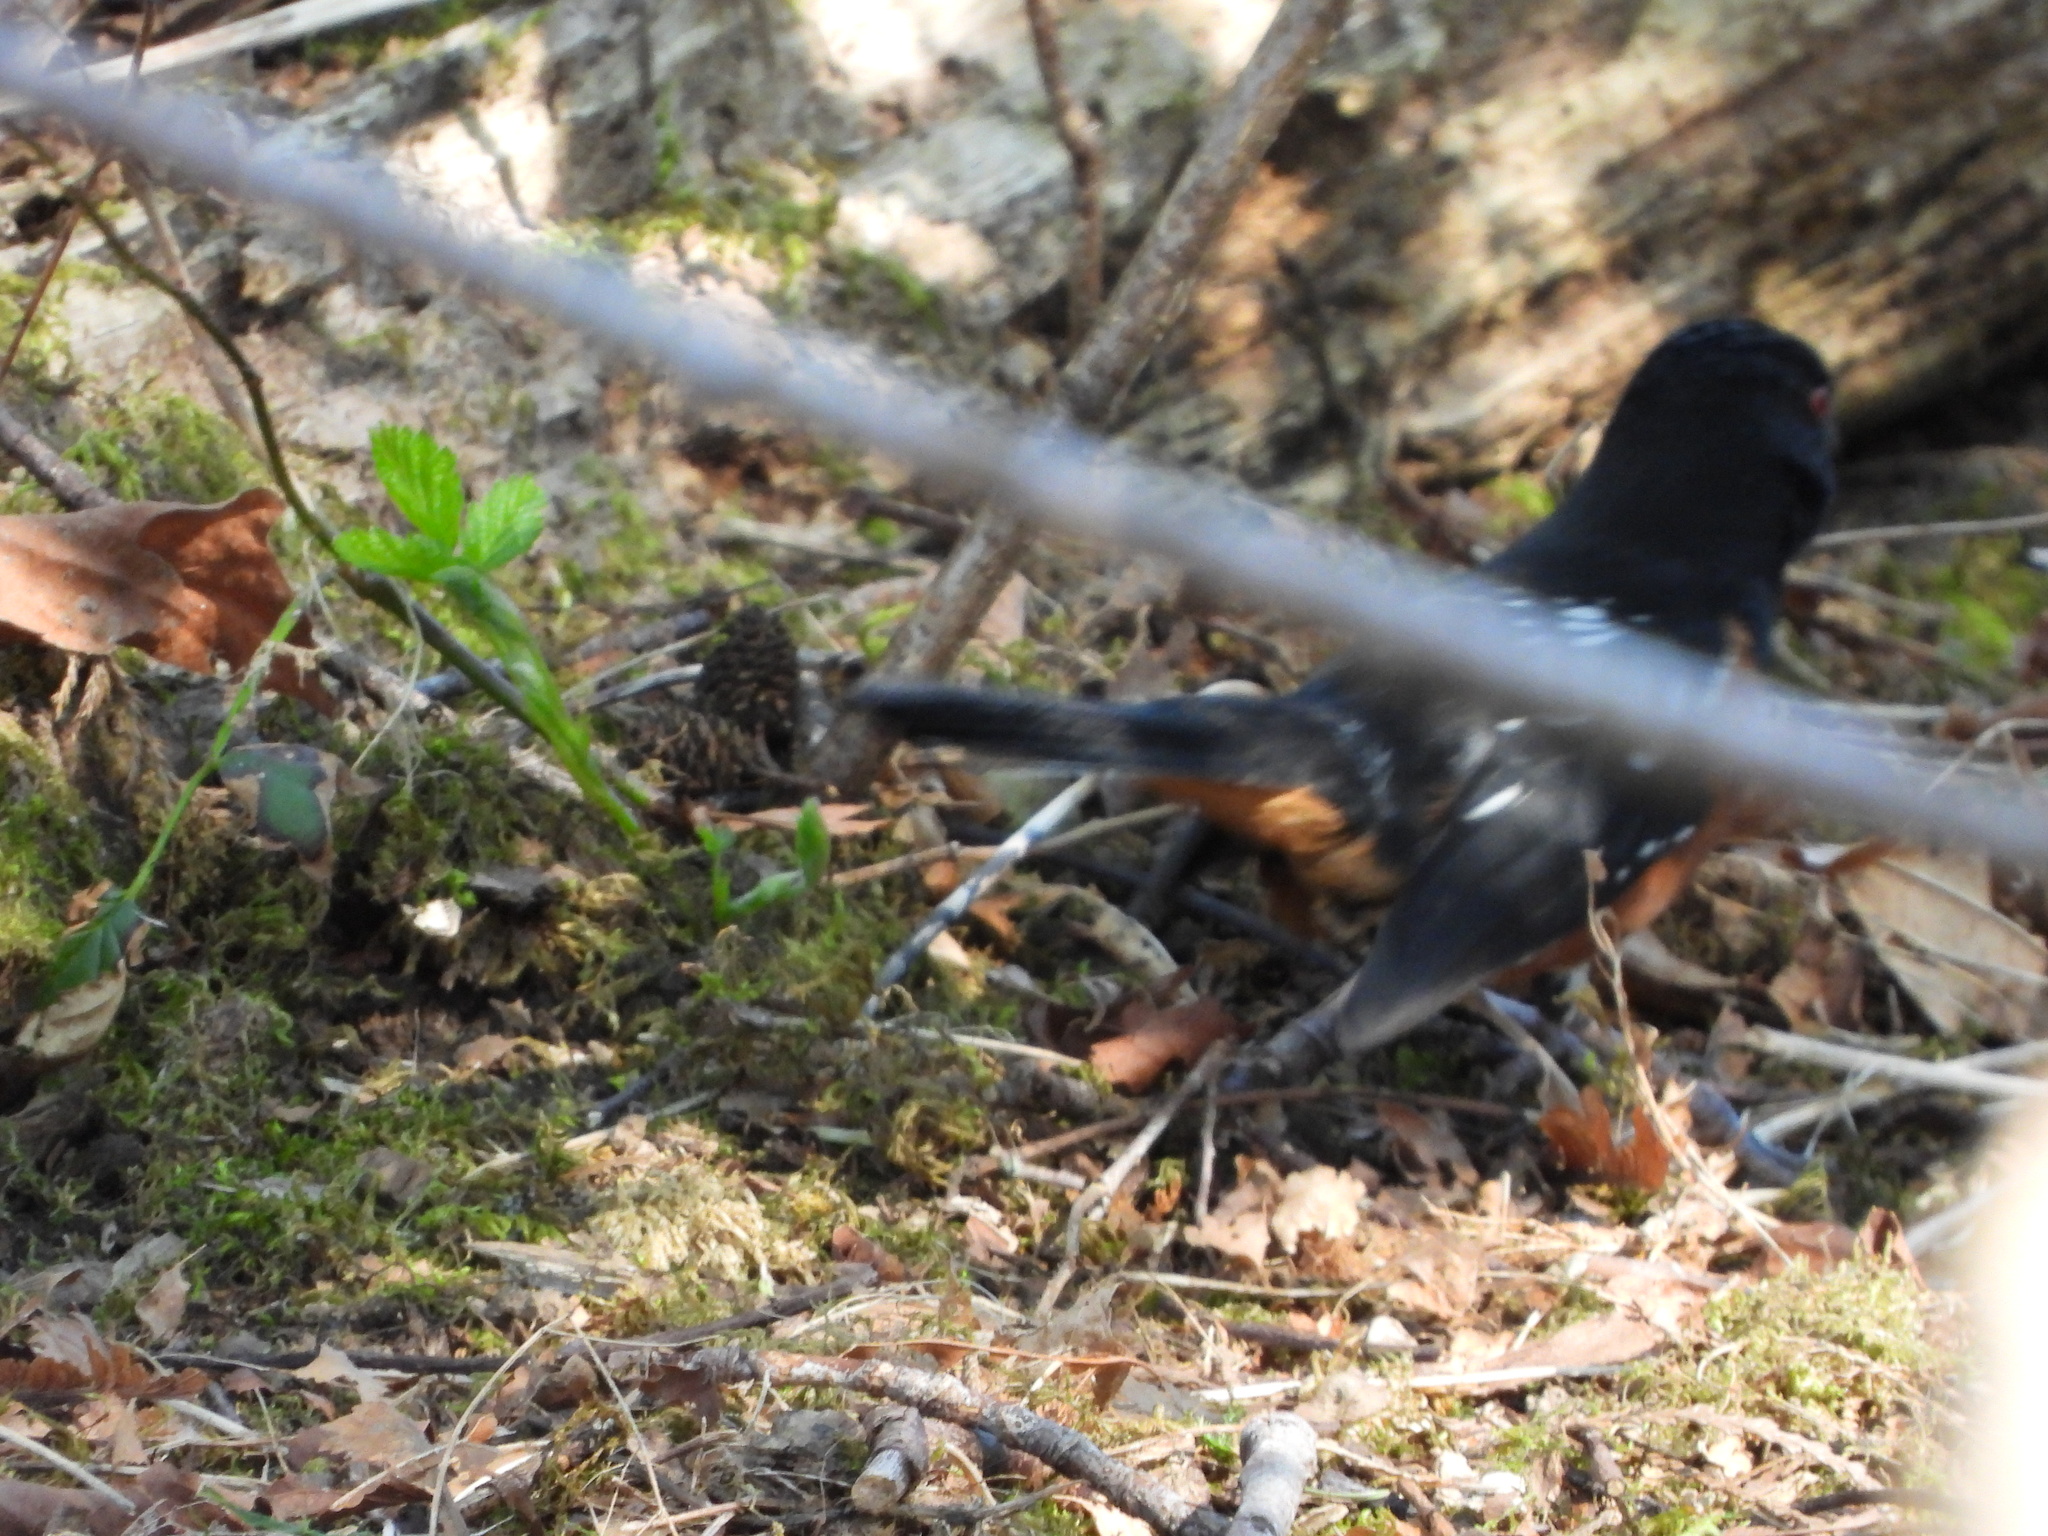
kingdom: Animalia
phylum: Chordata
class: Aves
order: Passeriformes
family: Passerellidae
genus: Pipilo
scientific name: Pipilo maculatus
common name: Spotted towhee
